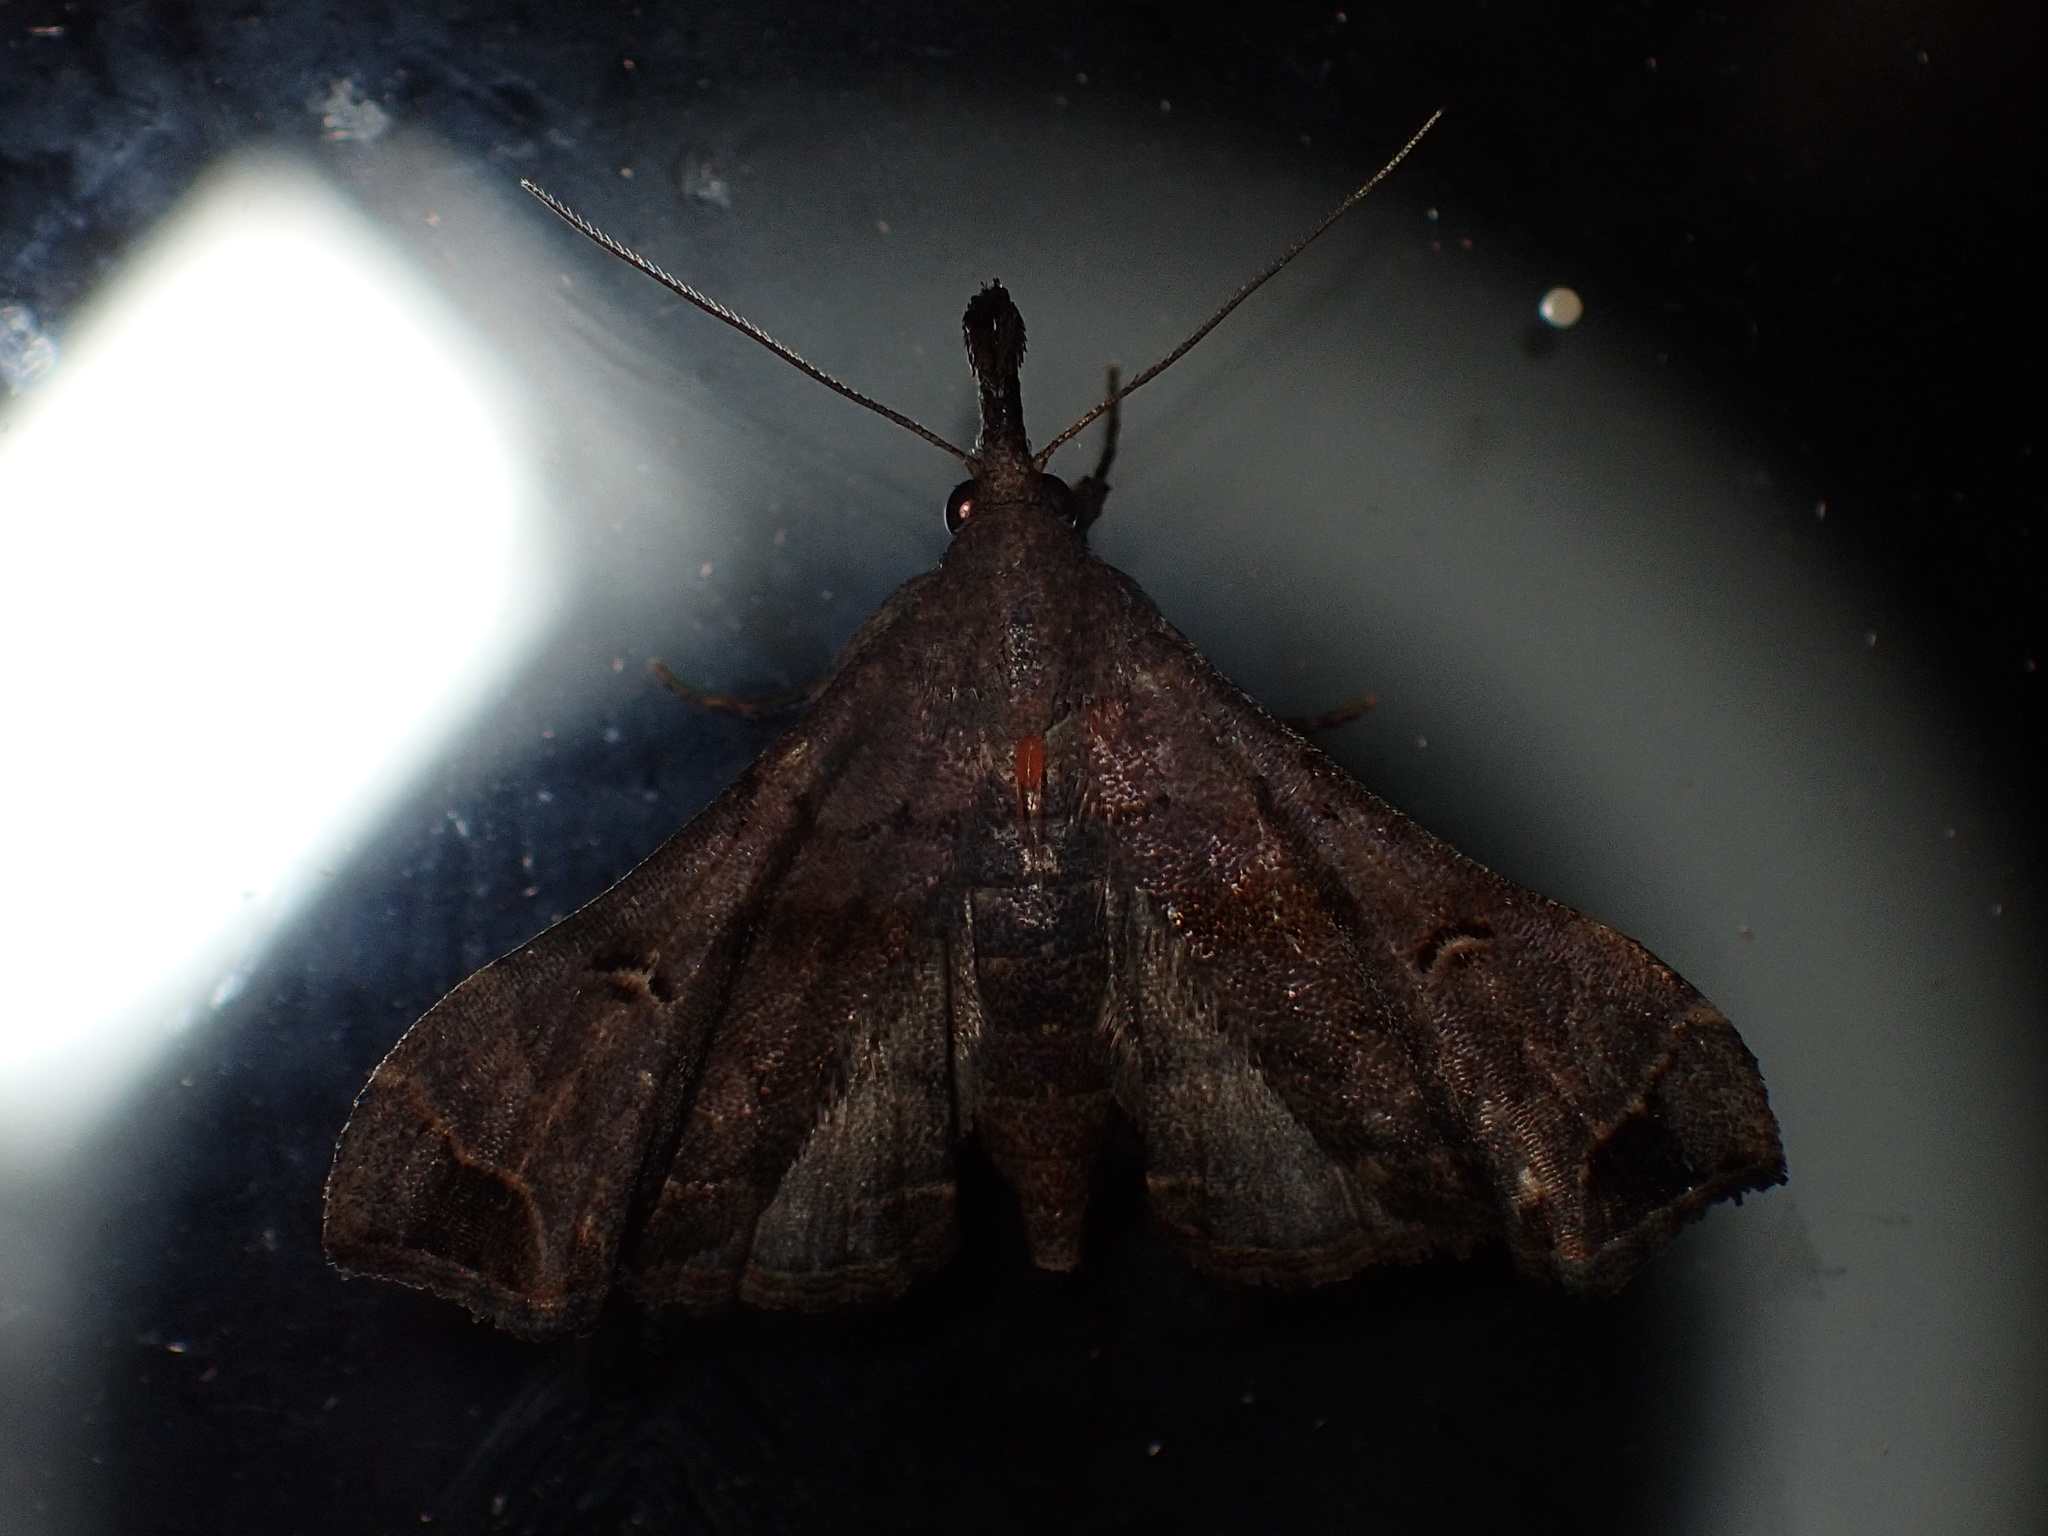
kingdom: Animalia
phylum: Arthropoda
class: Insecta
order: Lepidoptera
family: Erebidae
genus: Palthis
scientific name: Palthis asopialis
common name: Faint-spotted palthis moth
